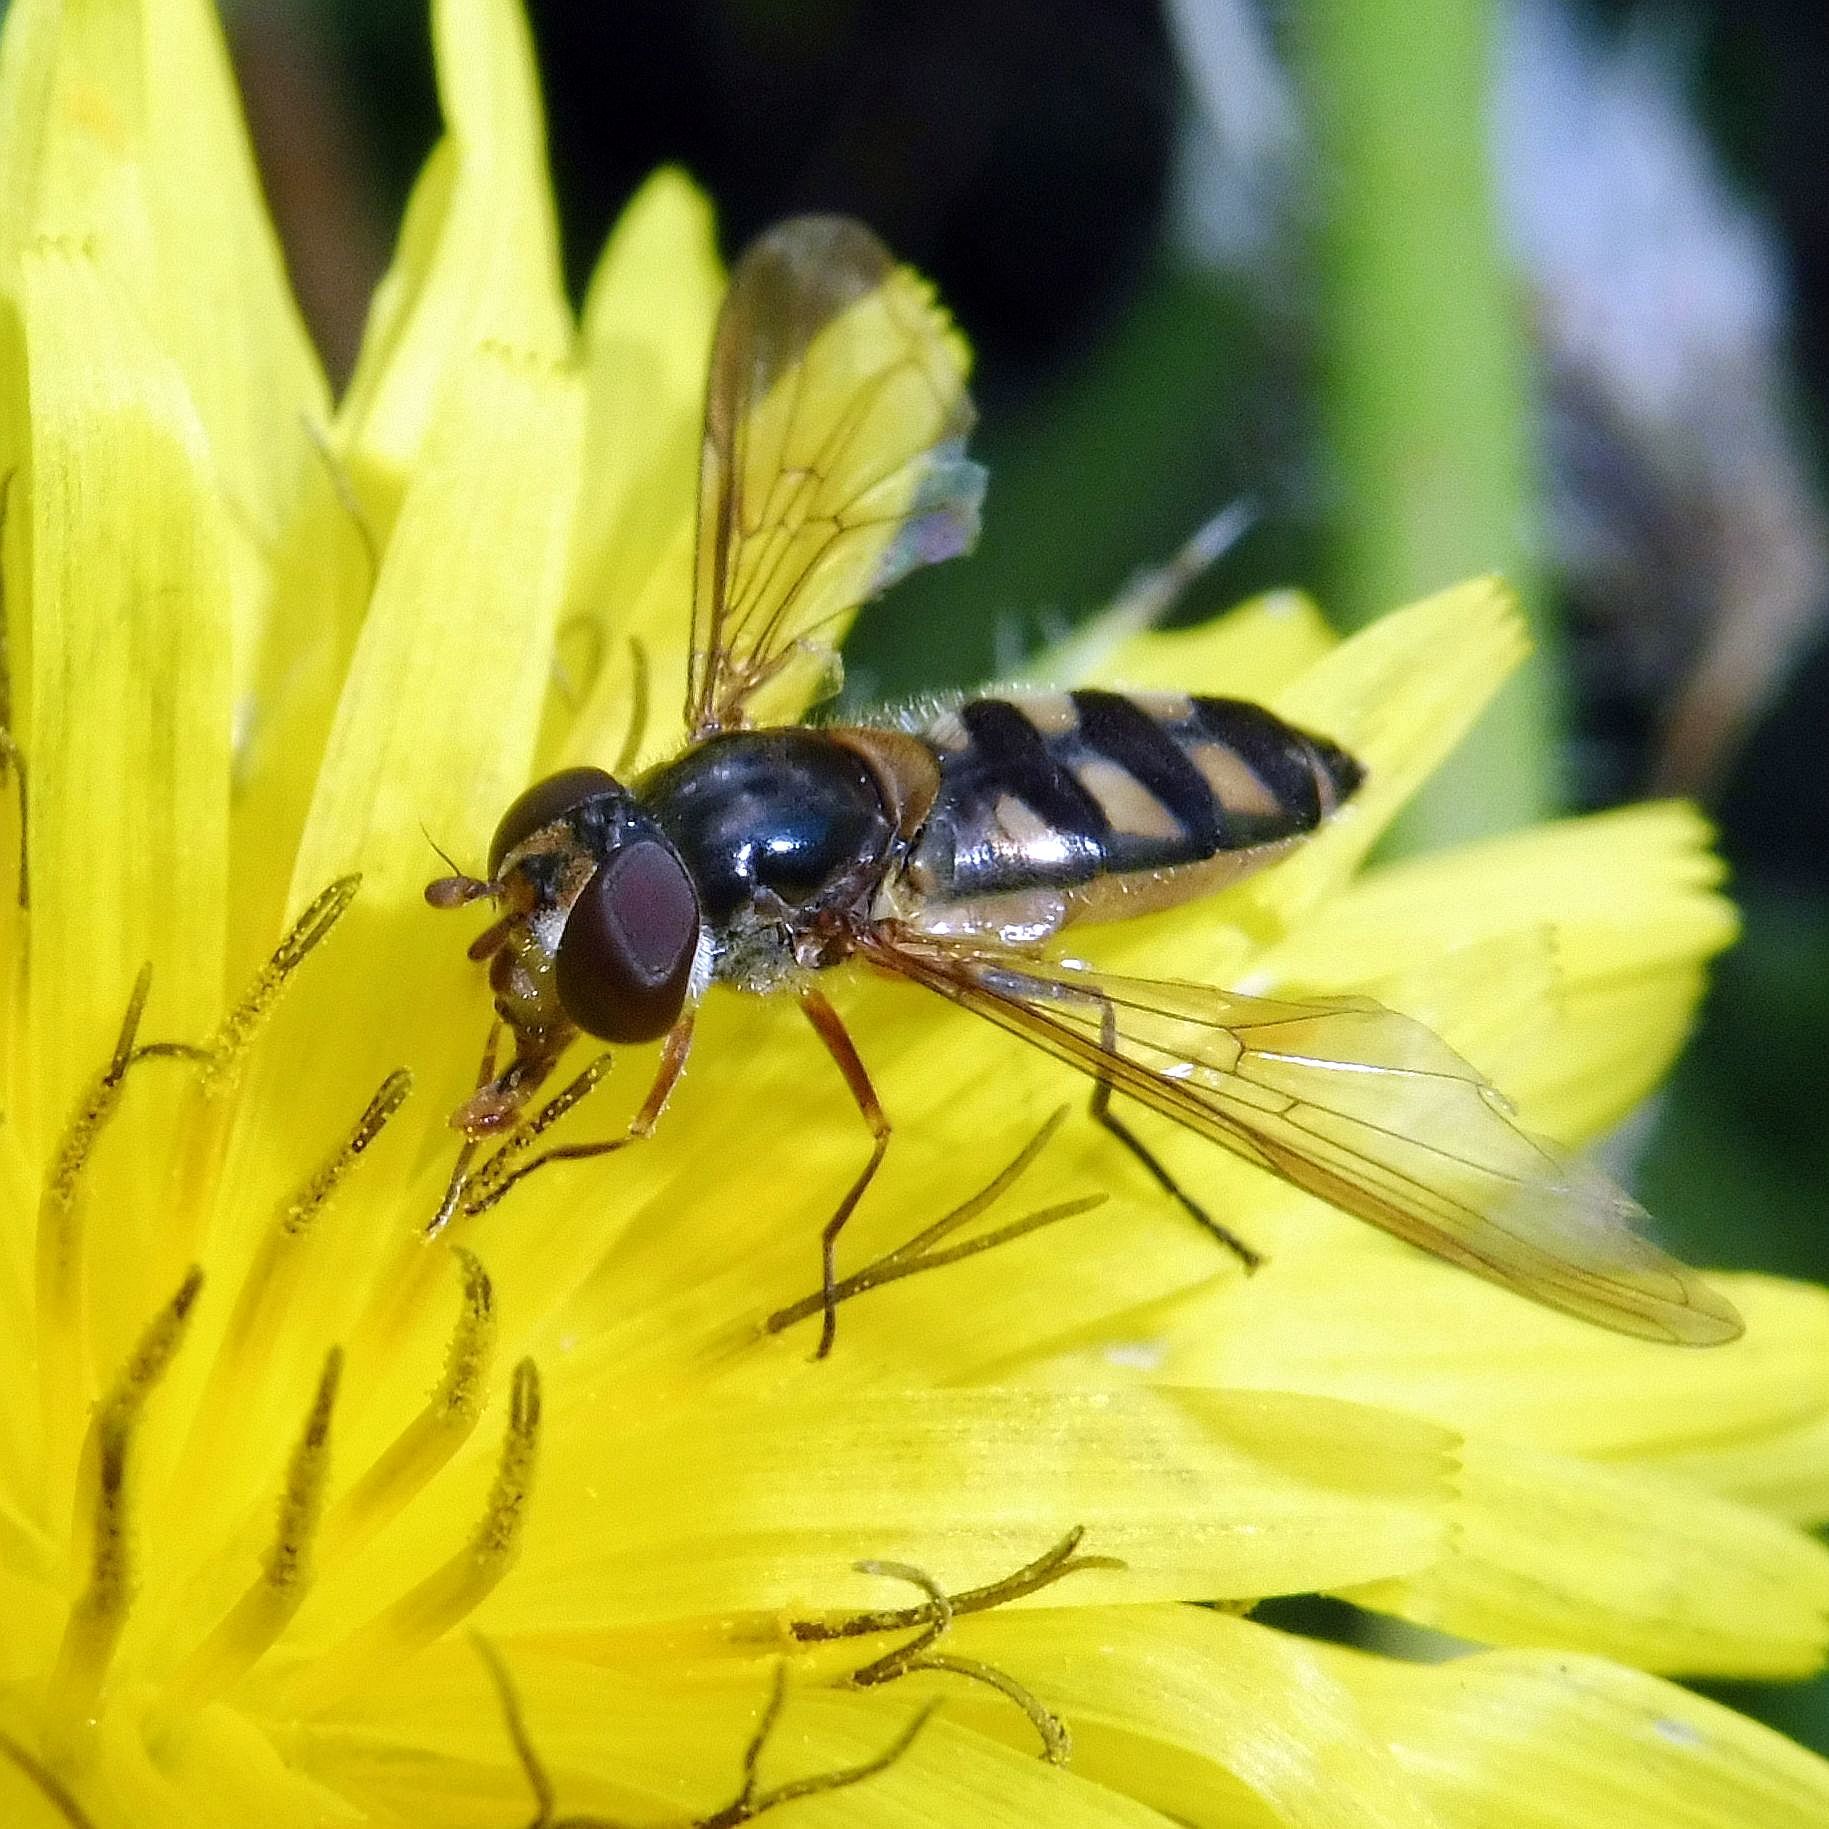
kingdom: Animalia
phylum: Arthropoda
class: Insecta
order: Diptera
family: Syrphidae
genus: Meliscaeva
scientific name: Meliscaeva auricollis
